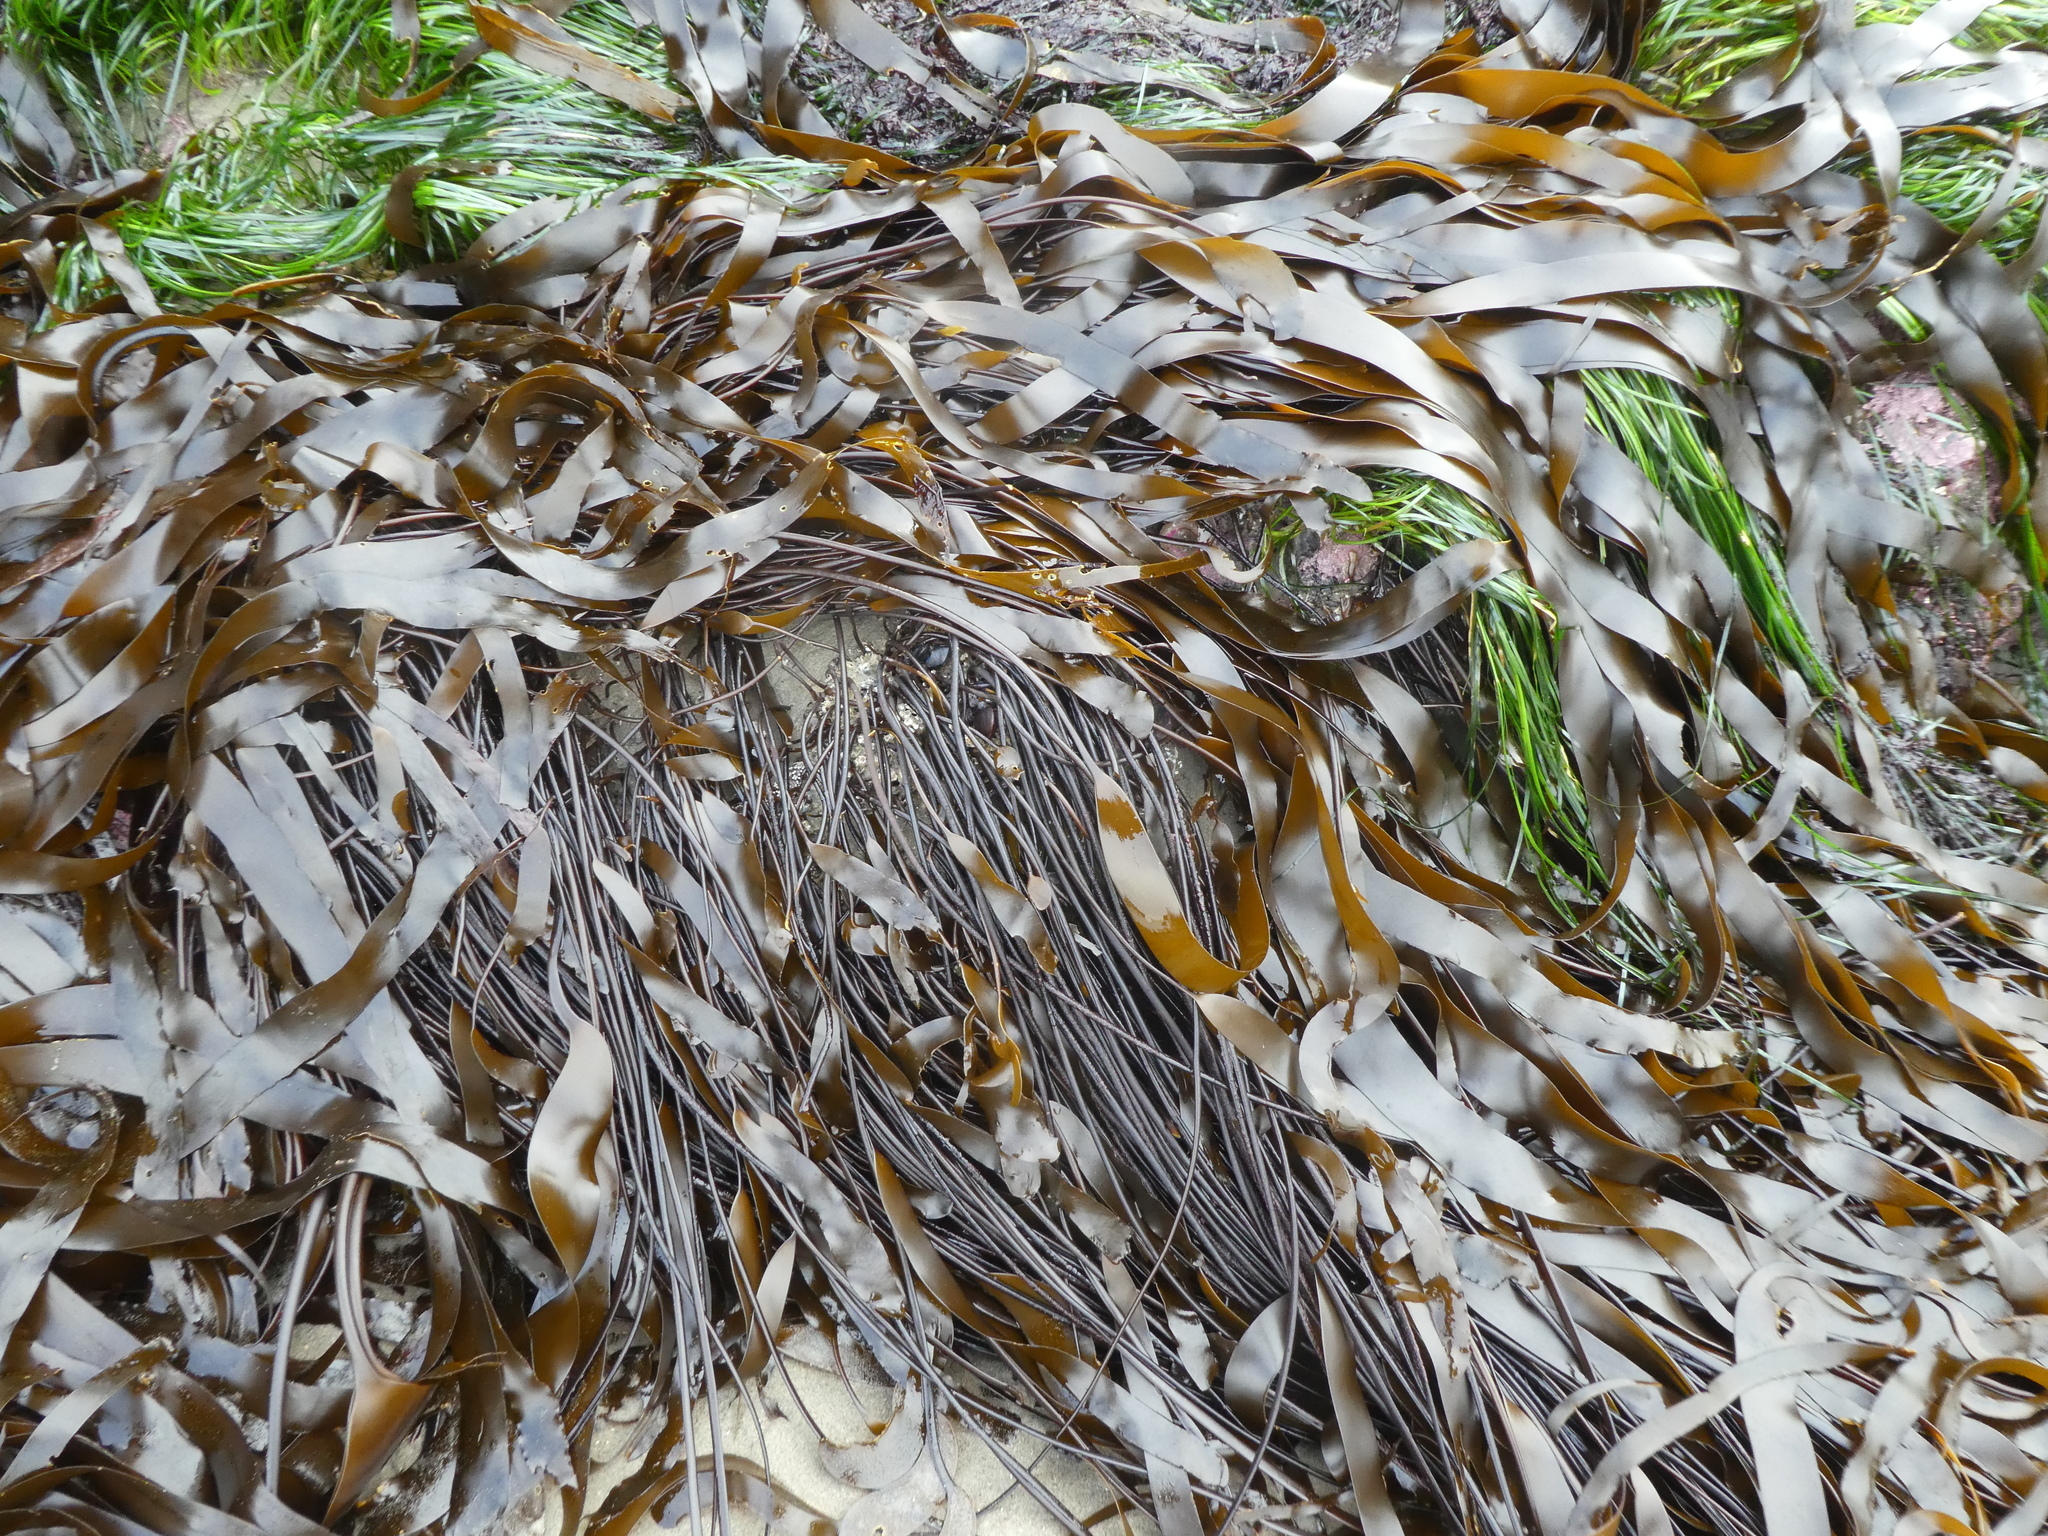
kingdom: Chromista
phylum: Ochrophyta
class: Phaeophyceae
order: Laminariales
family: Laminariaceae
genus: Laminaria
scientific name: Laminaria sinclairii
